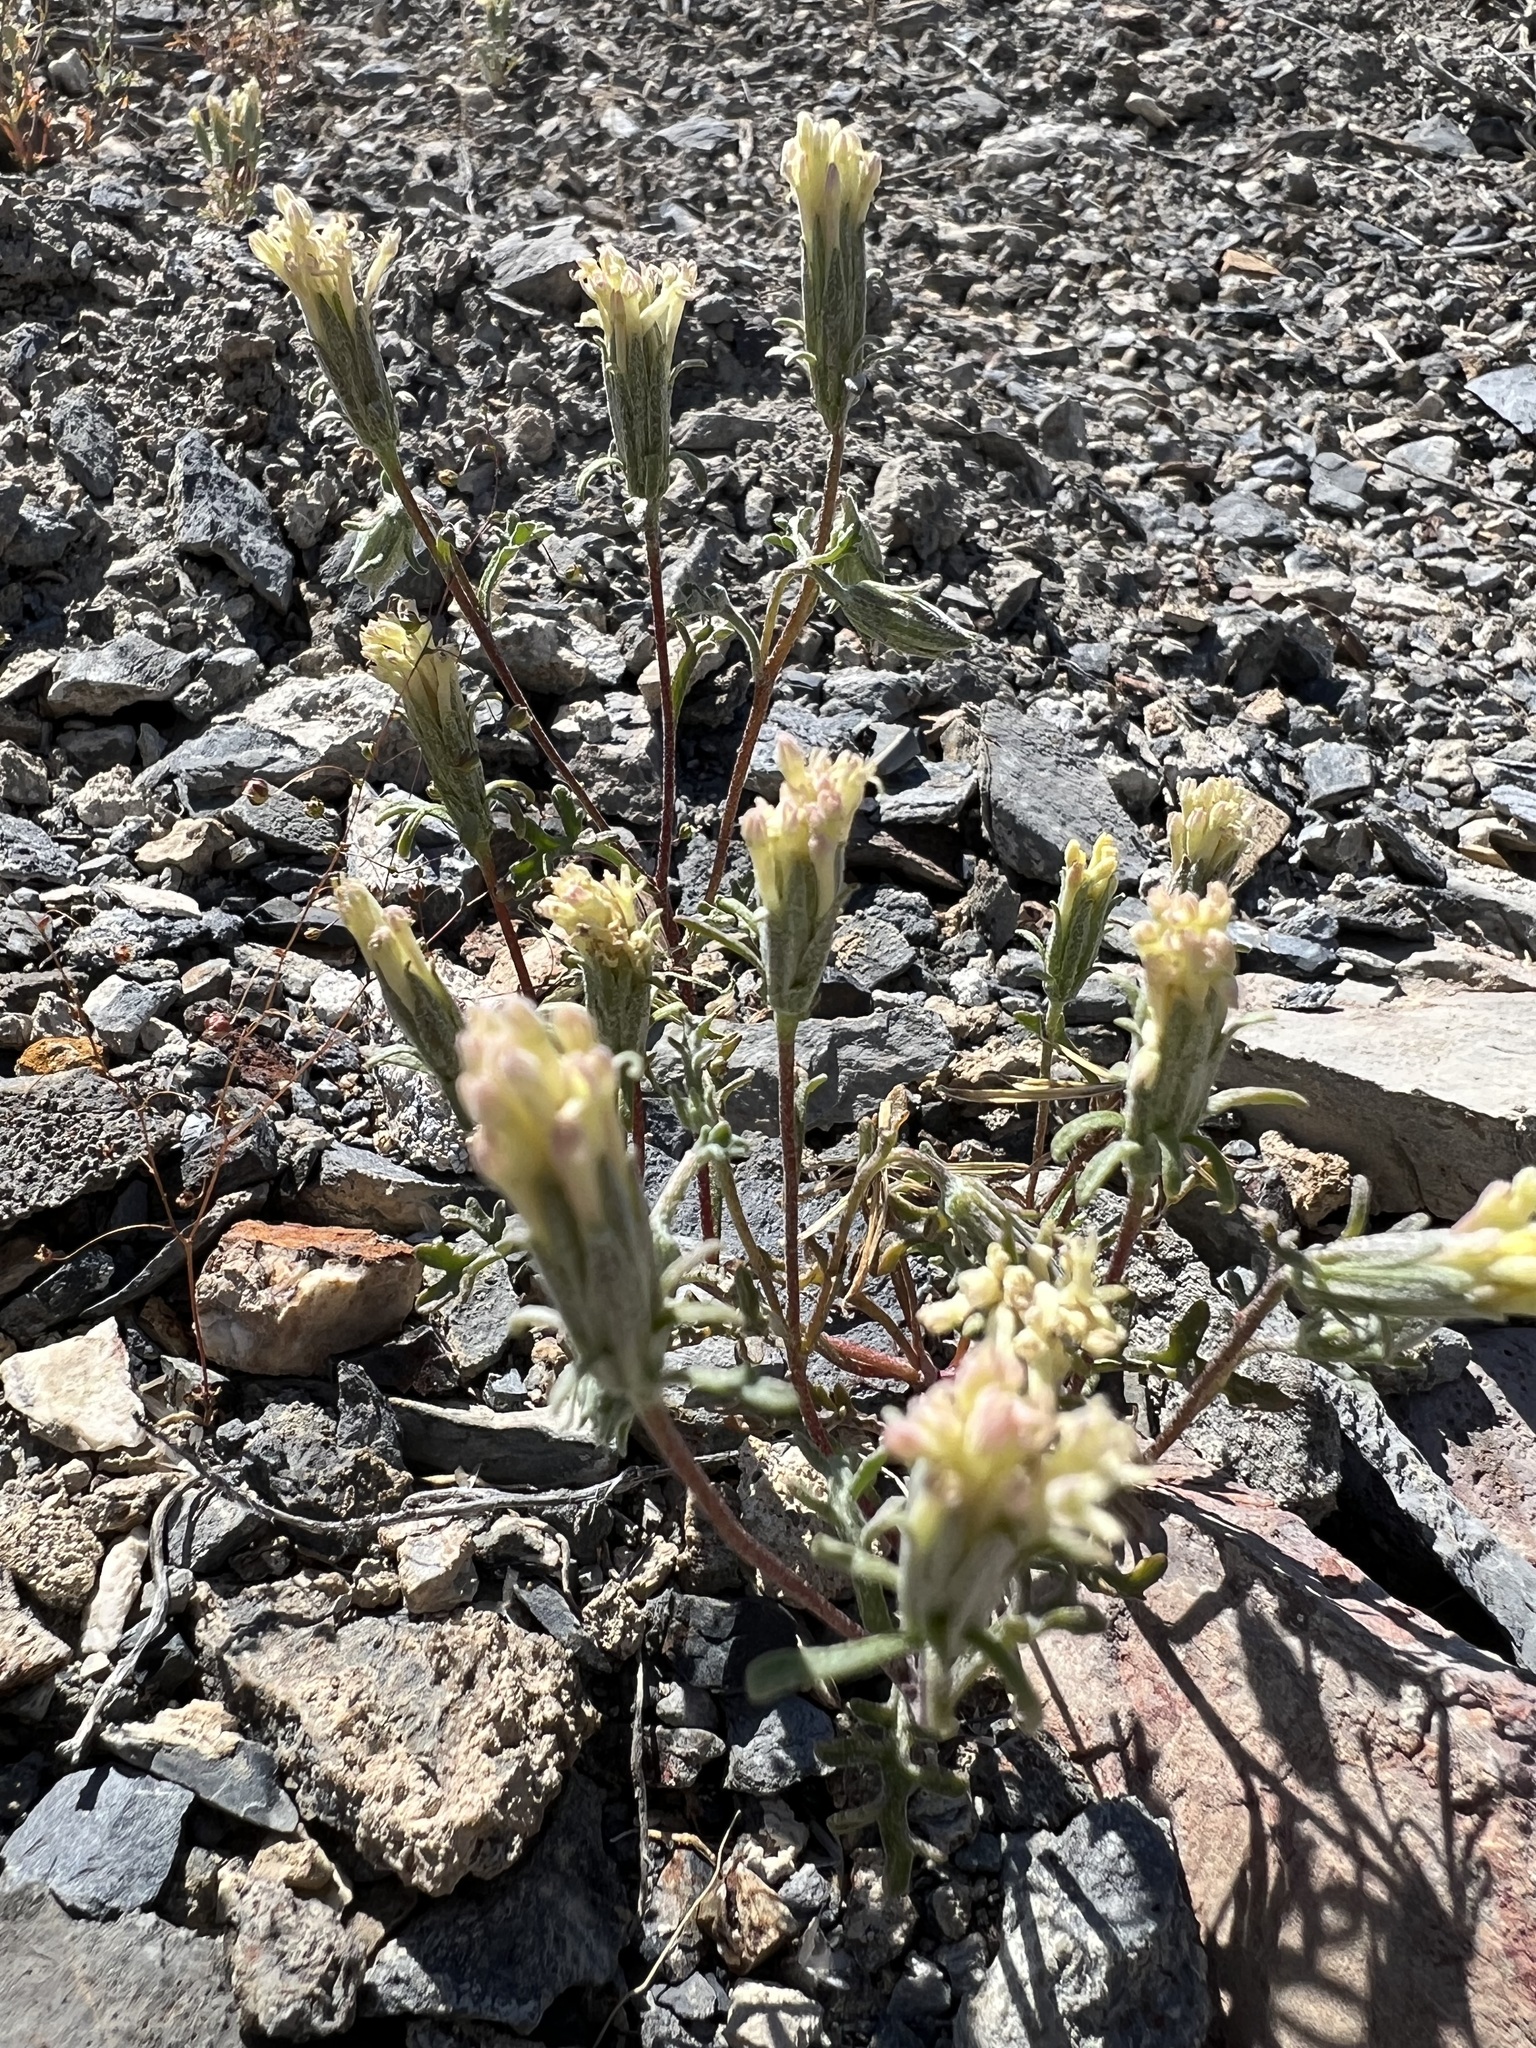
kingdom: Plantae
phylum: Tracheophyta
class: Magnoliopsida
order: Asterales
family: Asteraceae
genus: Chaenactis
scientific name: Chaenactis macrantha
